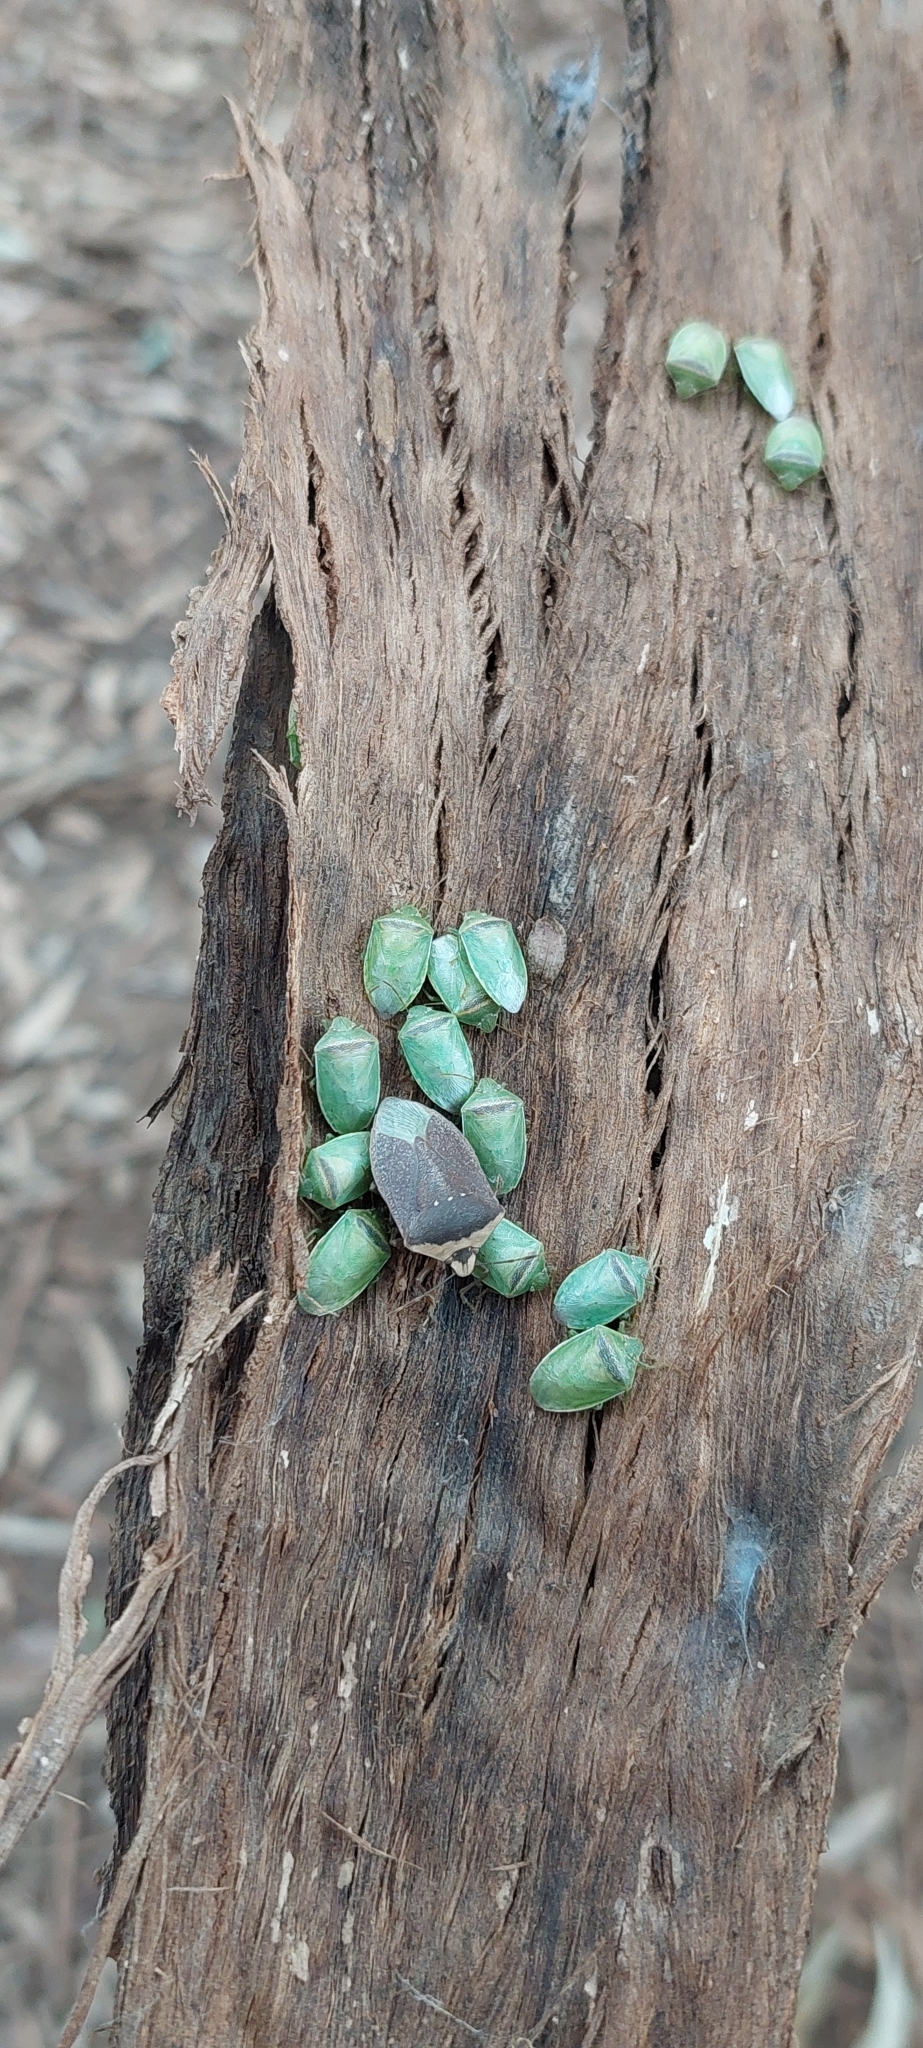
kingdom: Animalia
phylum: Arthropoda
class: Insecta
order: Hemiptera
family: Pentatomidae
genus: Piezodorus
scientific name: Piezodorus guildinii
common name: Redbanded stink bug
